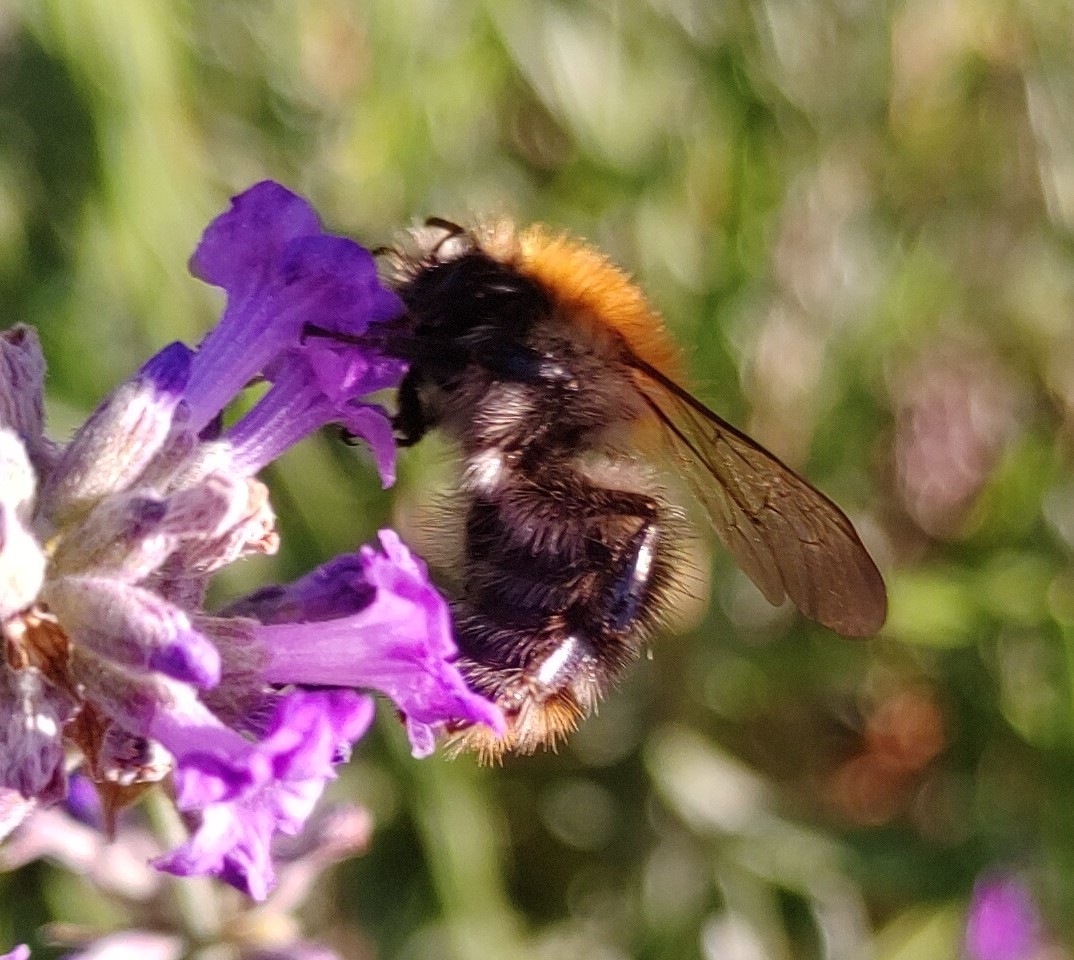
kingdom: Animalia
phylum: Arthropoda
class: Insecta
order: Hymenoptera
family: Apidae
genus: Bombus
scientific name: Bombus pascuorum
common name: Common carder bee
